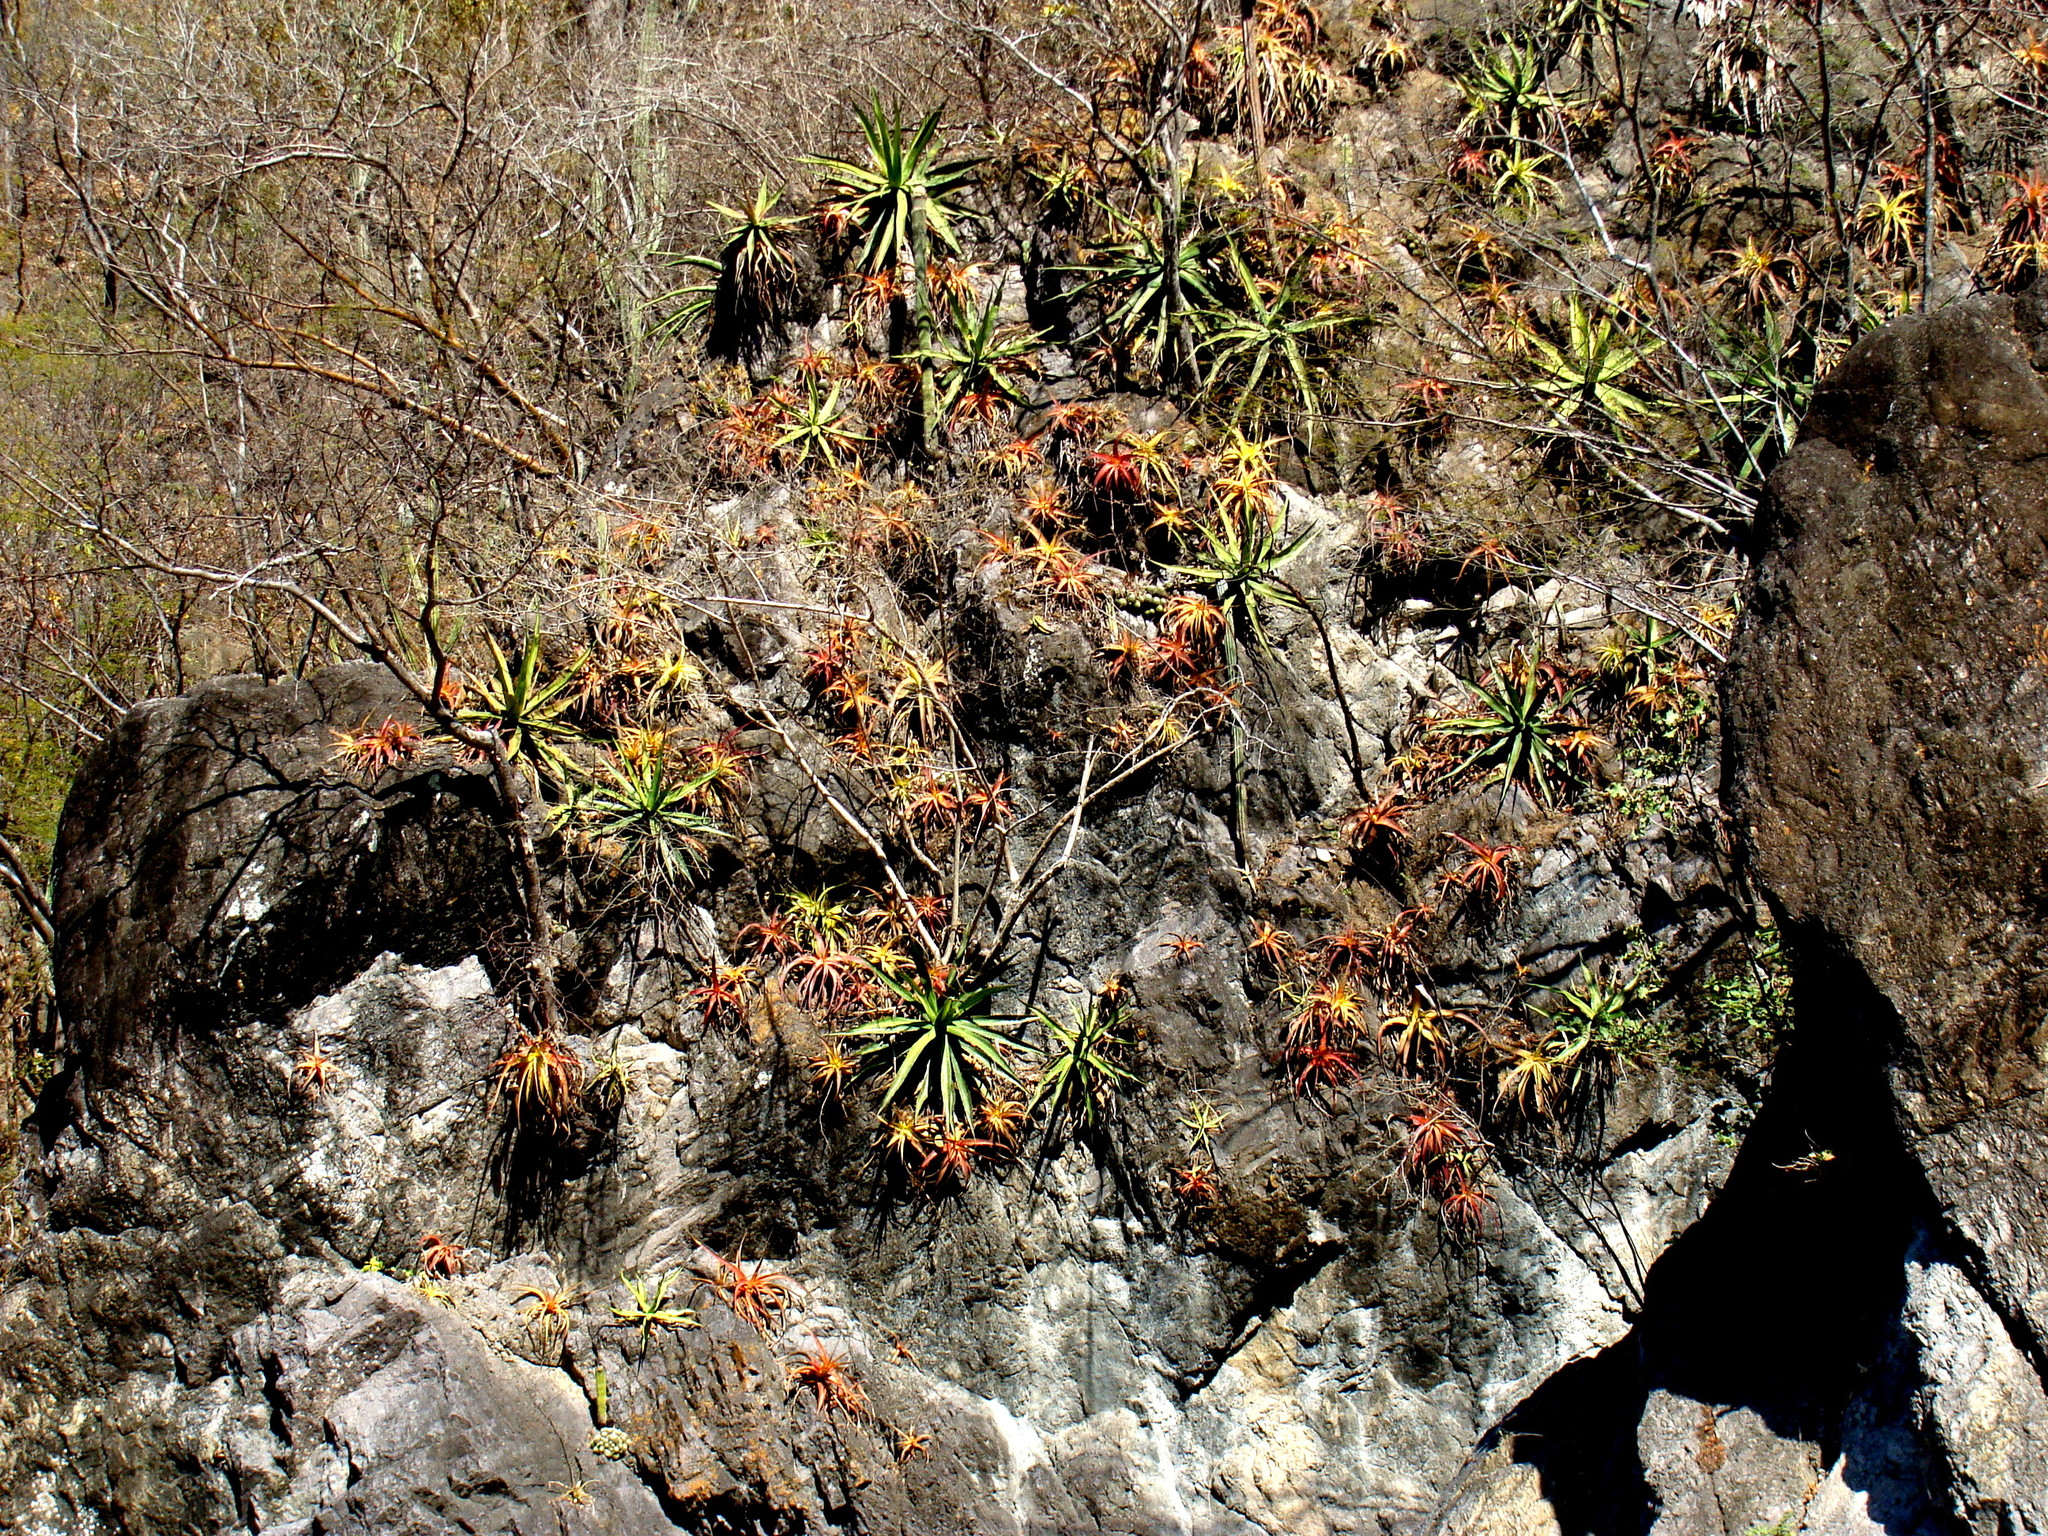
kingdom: Plantae
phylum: Tracheophyta
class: Liliopsida
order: Poales
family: Bromeliaceae
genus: Hechtia
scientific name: Hechtia fosteriana
